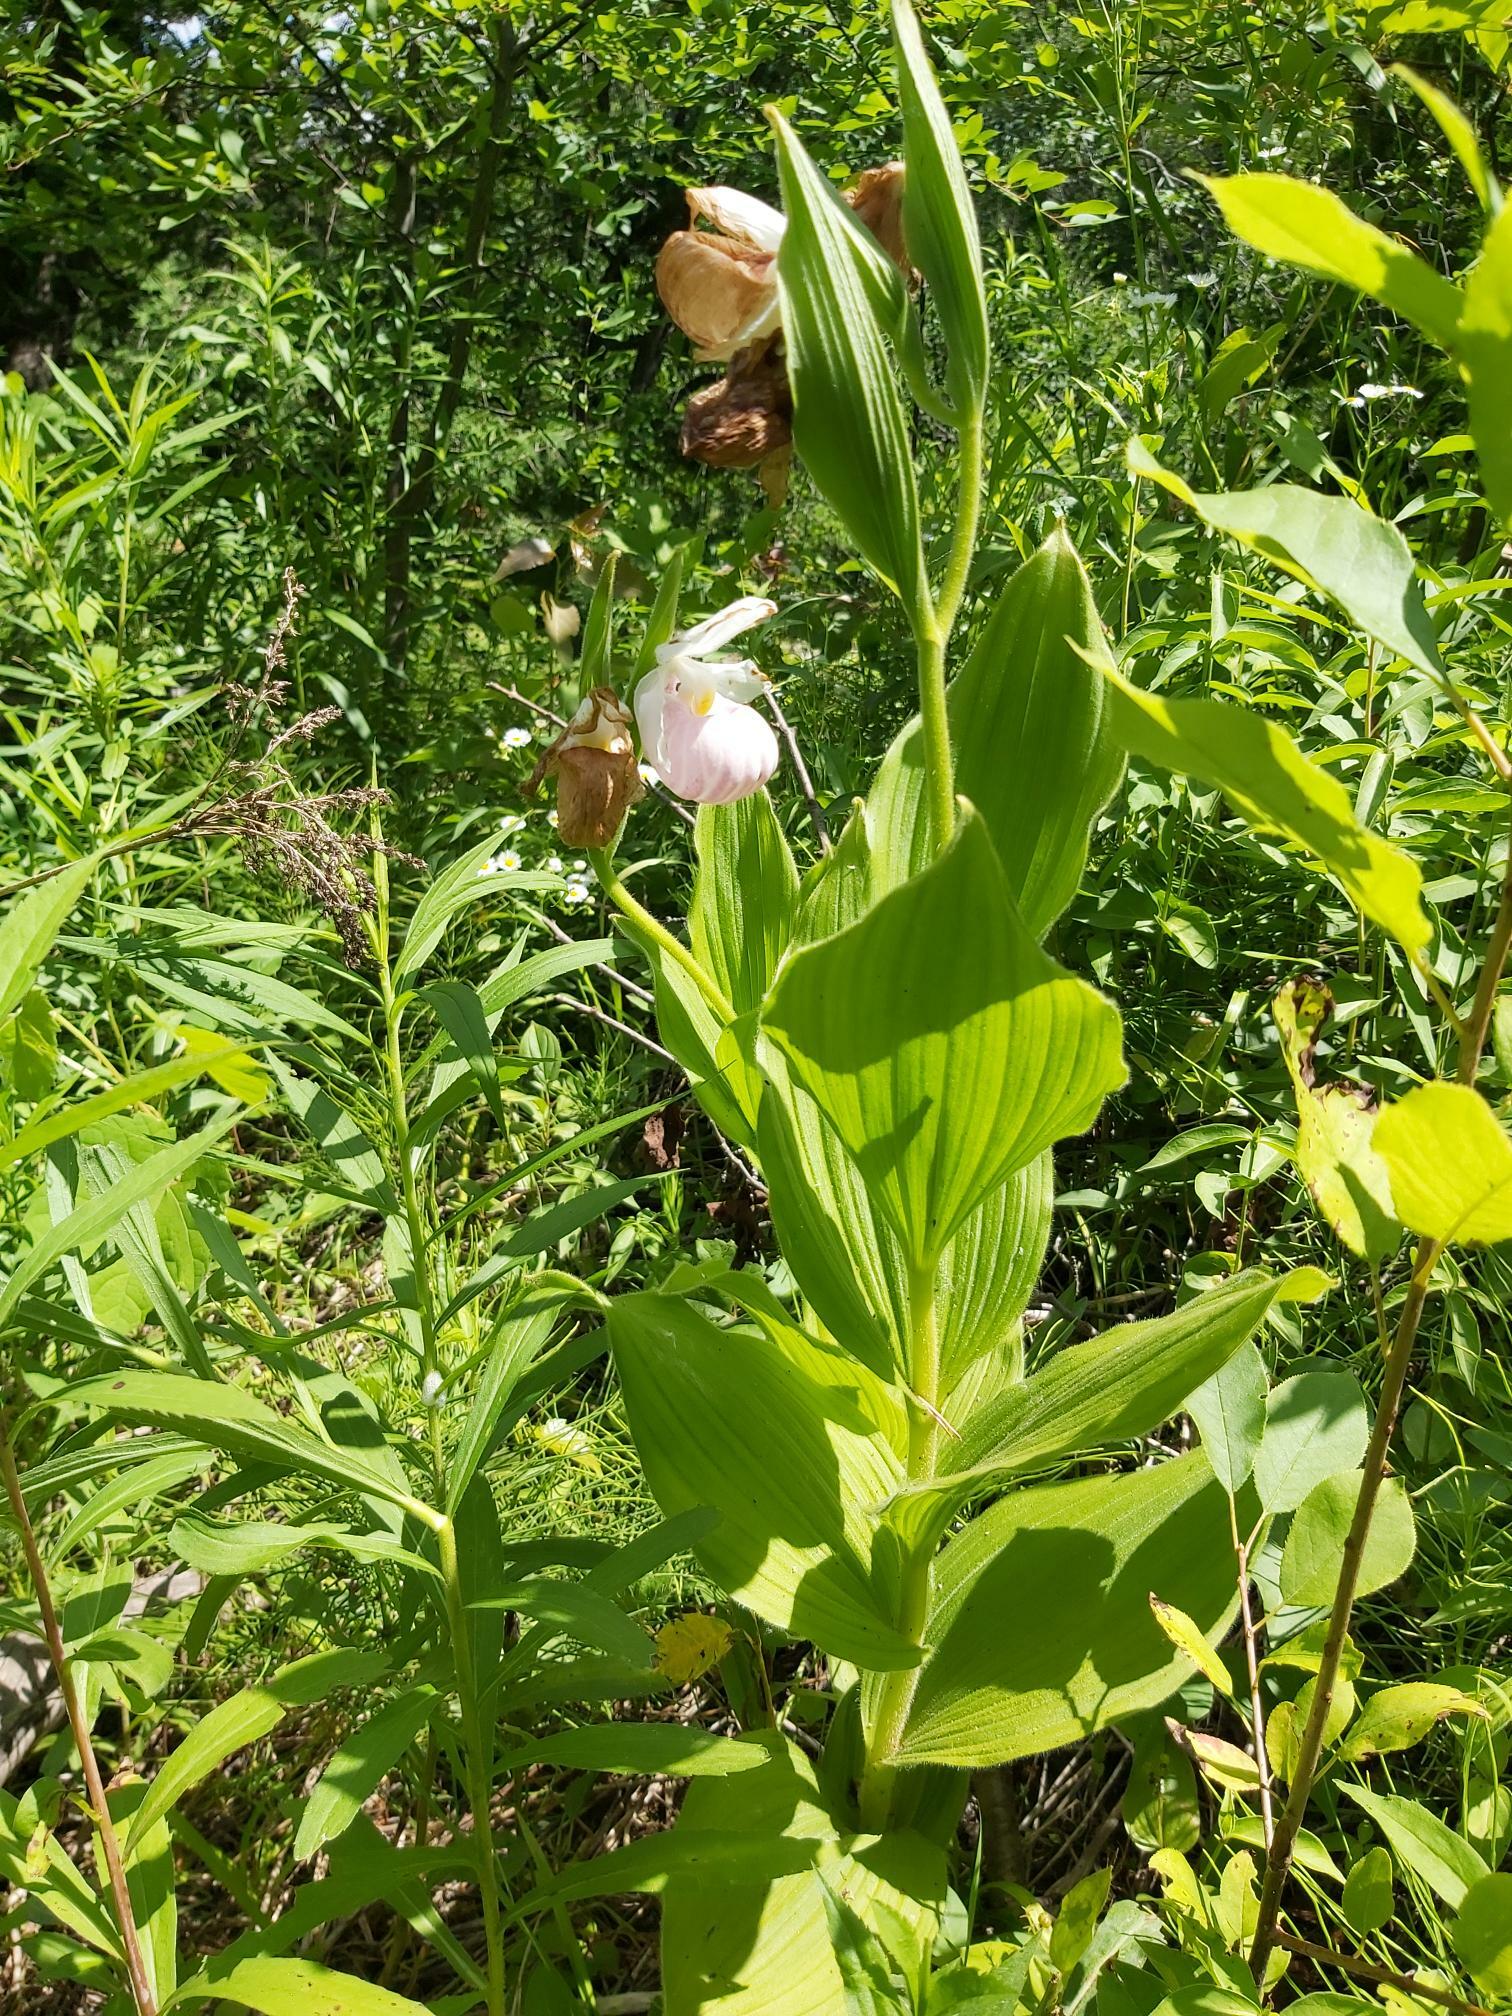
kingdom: Plantae
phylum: Tracheophyta
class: Liliopsida
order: Asparagales
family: Orchidaceae
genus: Cypripedium
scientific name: Cypripedium reginae
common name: Queen lady's-slipper
